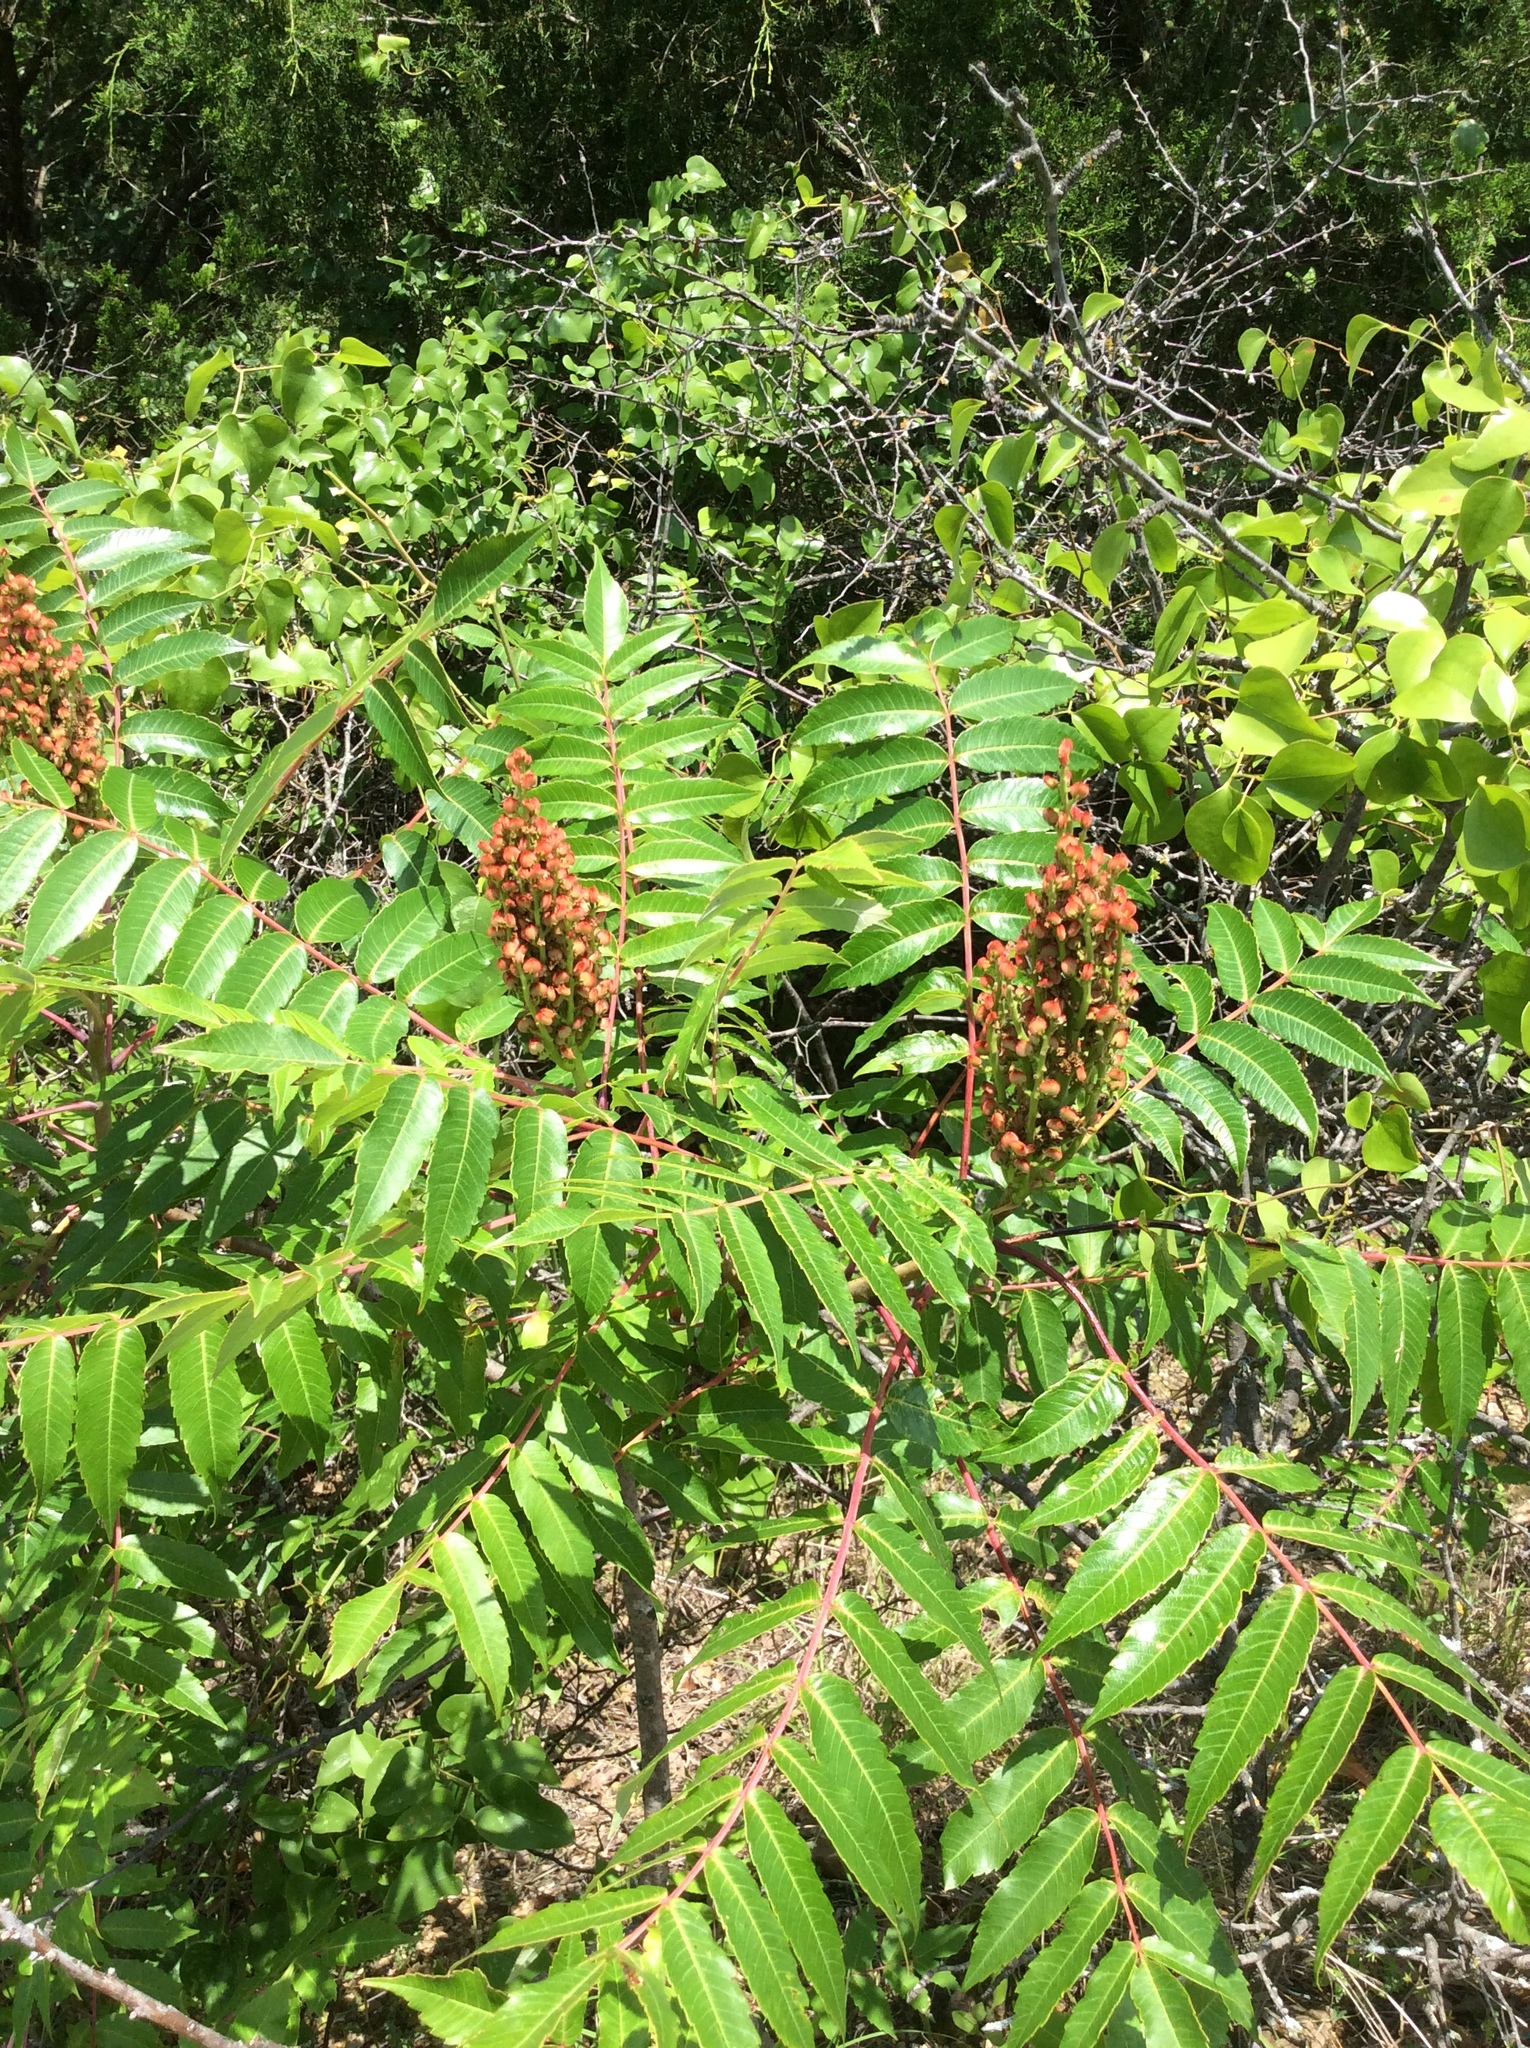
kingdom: Plantae
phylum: Tracheophyta
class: Magnoliopsida
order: Sapindales
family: Anacardiaceae
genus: Rhus
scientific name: Rhus glabra
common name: Scarlet sumac
